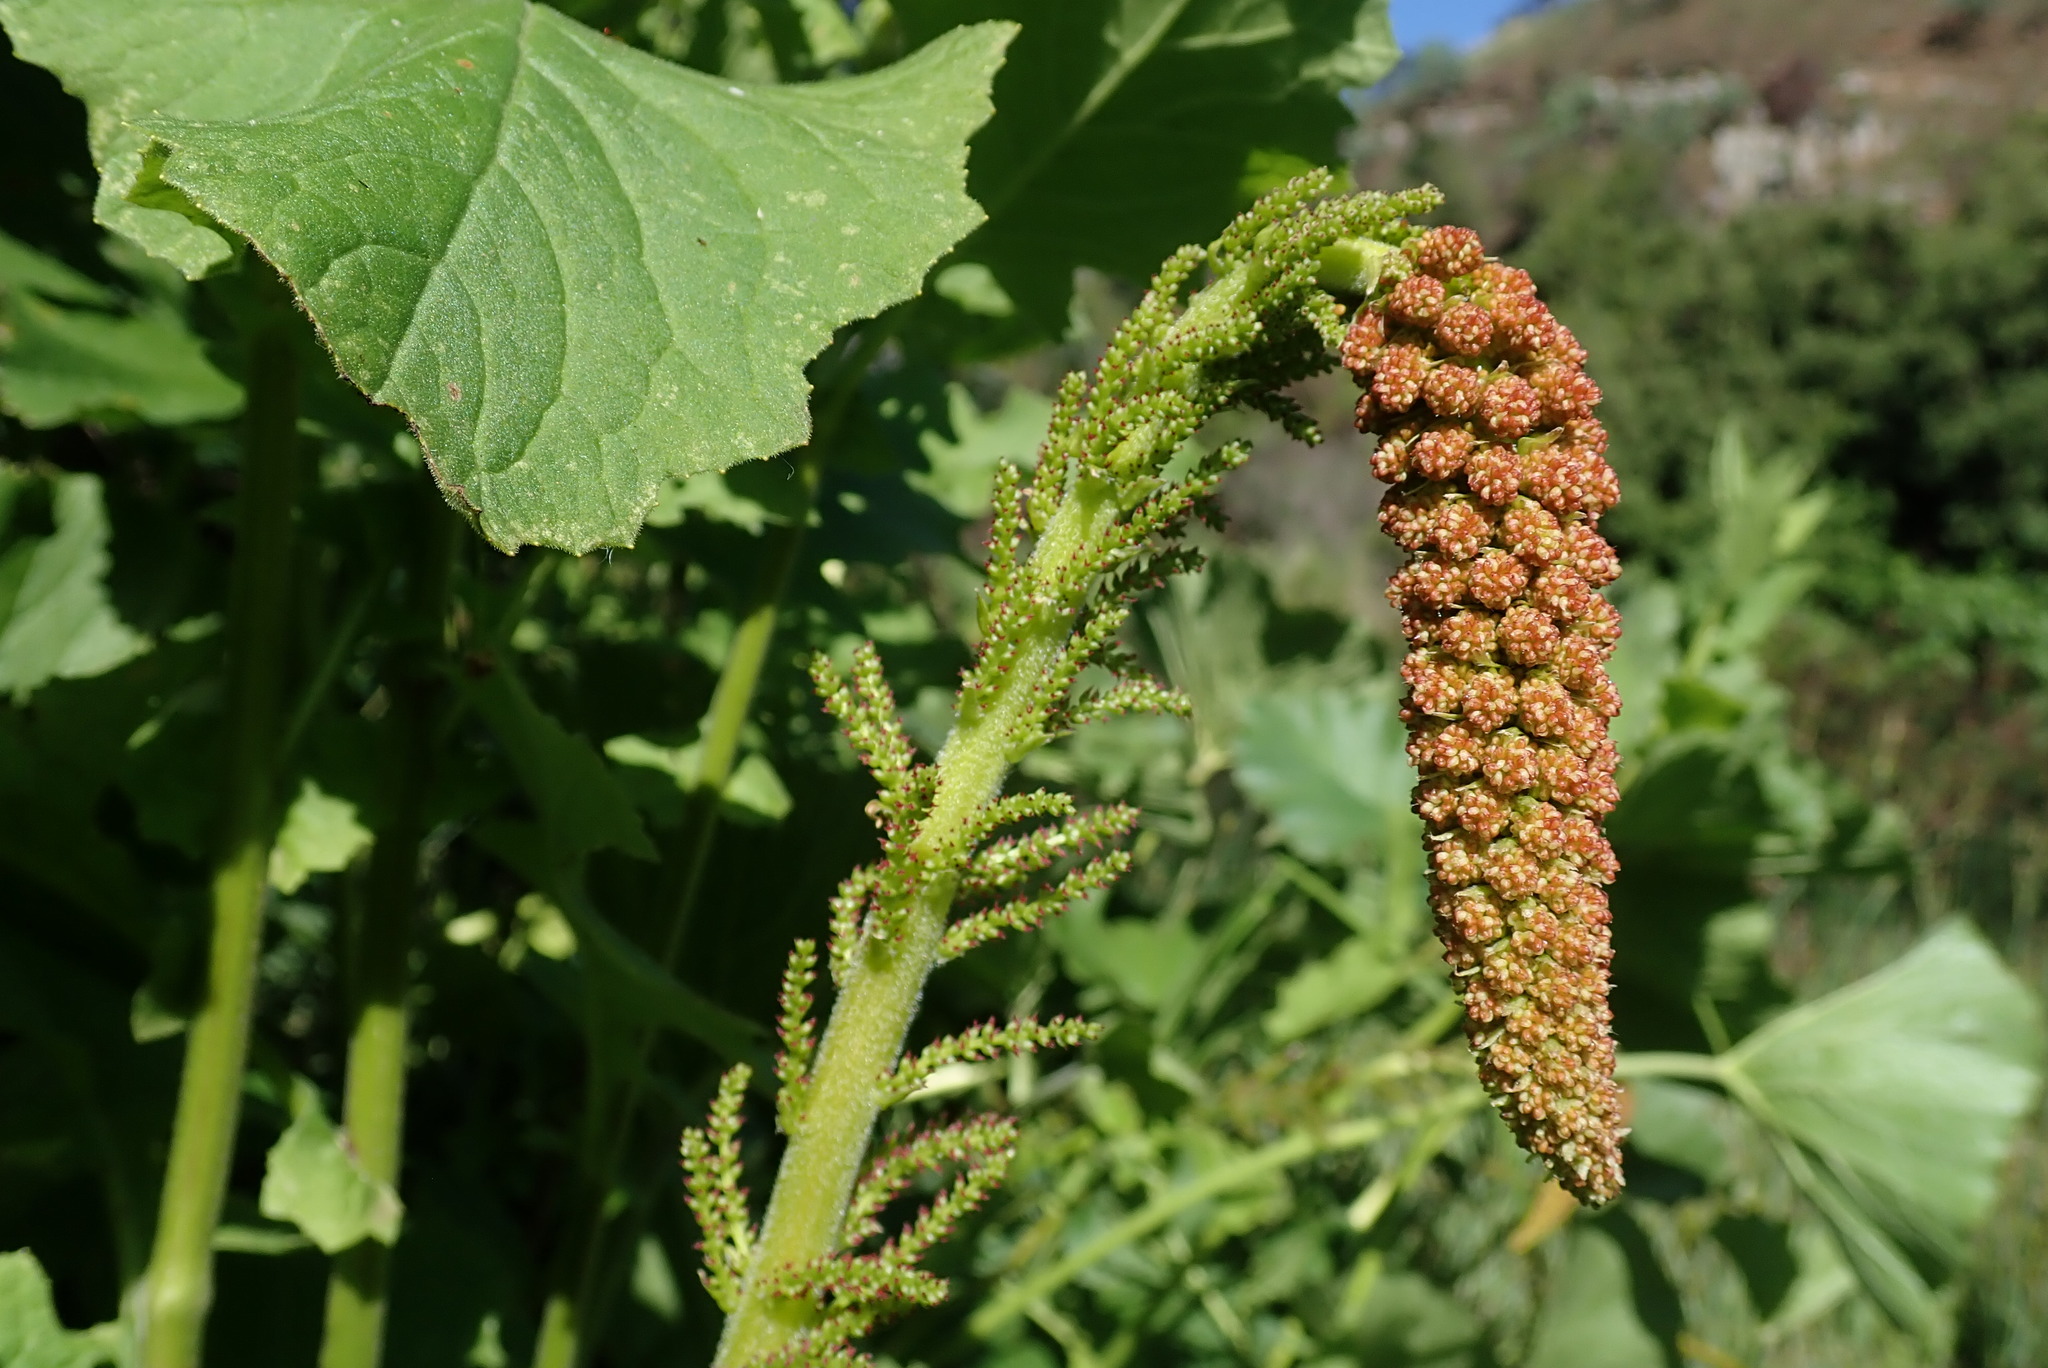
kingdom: Plantae
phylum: Tracheophyta
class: Magnoliopsida
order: Gunnerales
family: Gunneraceae
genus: Gunnera
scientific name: Gunnera perpensa
